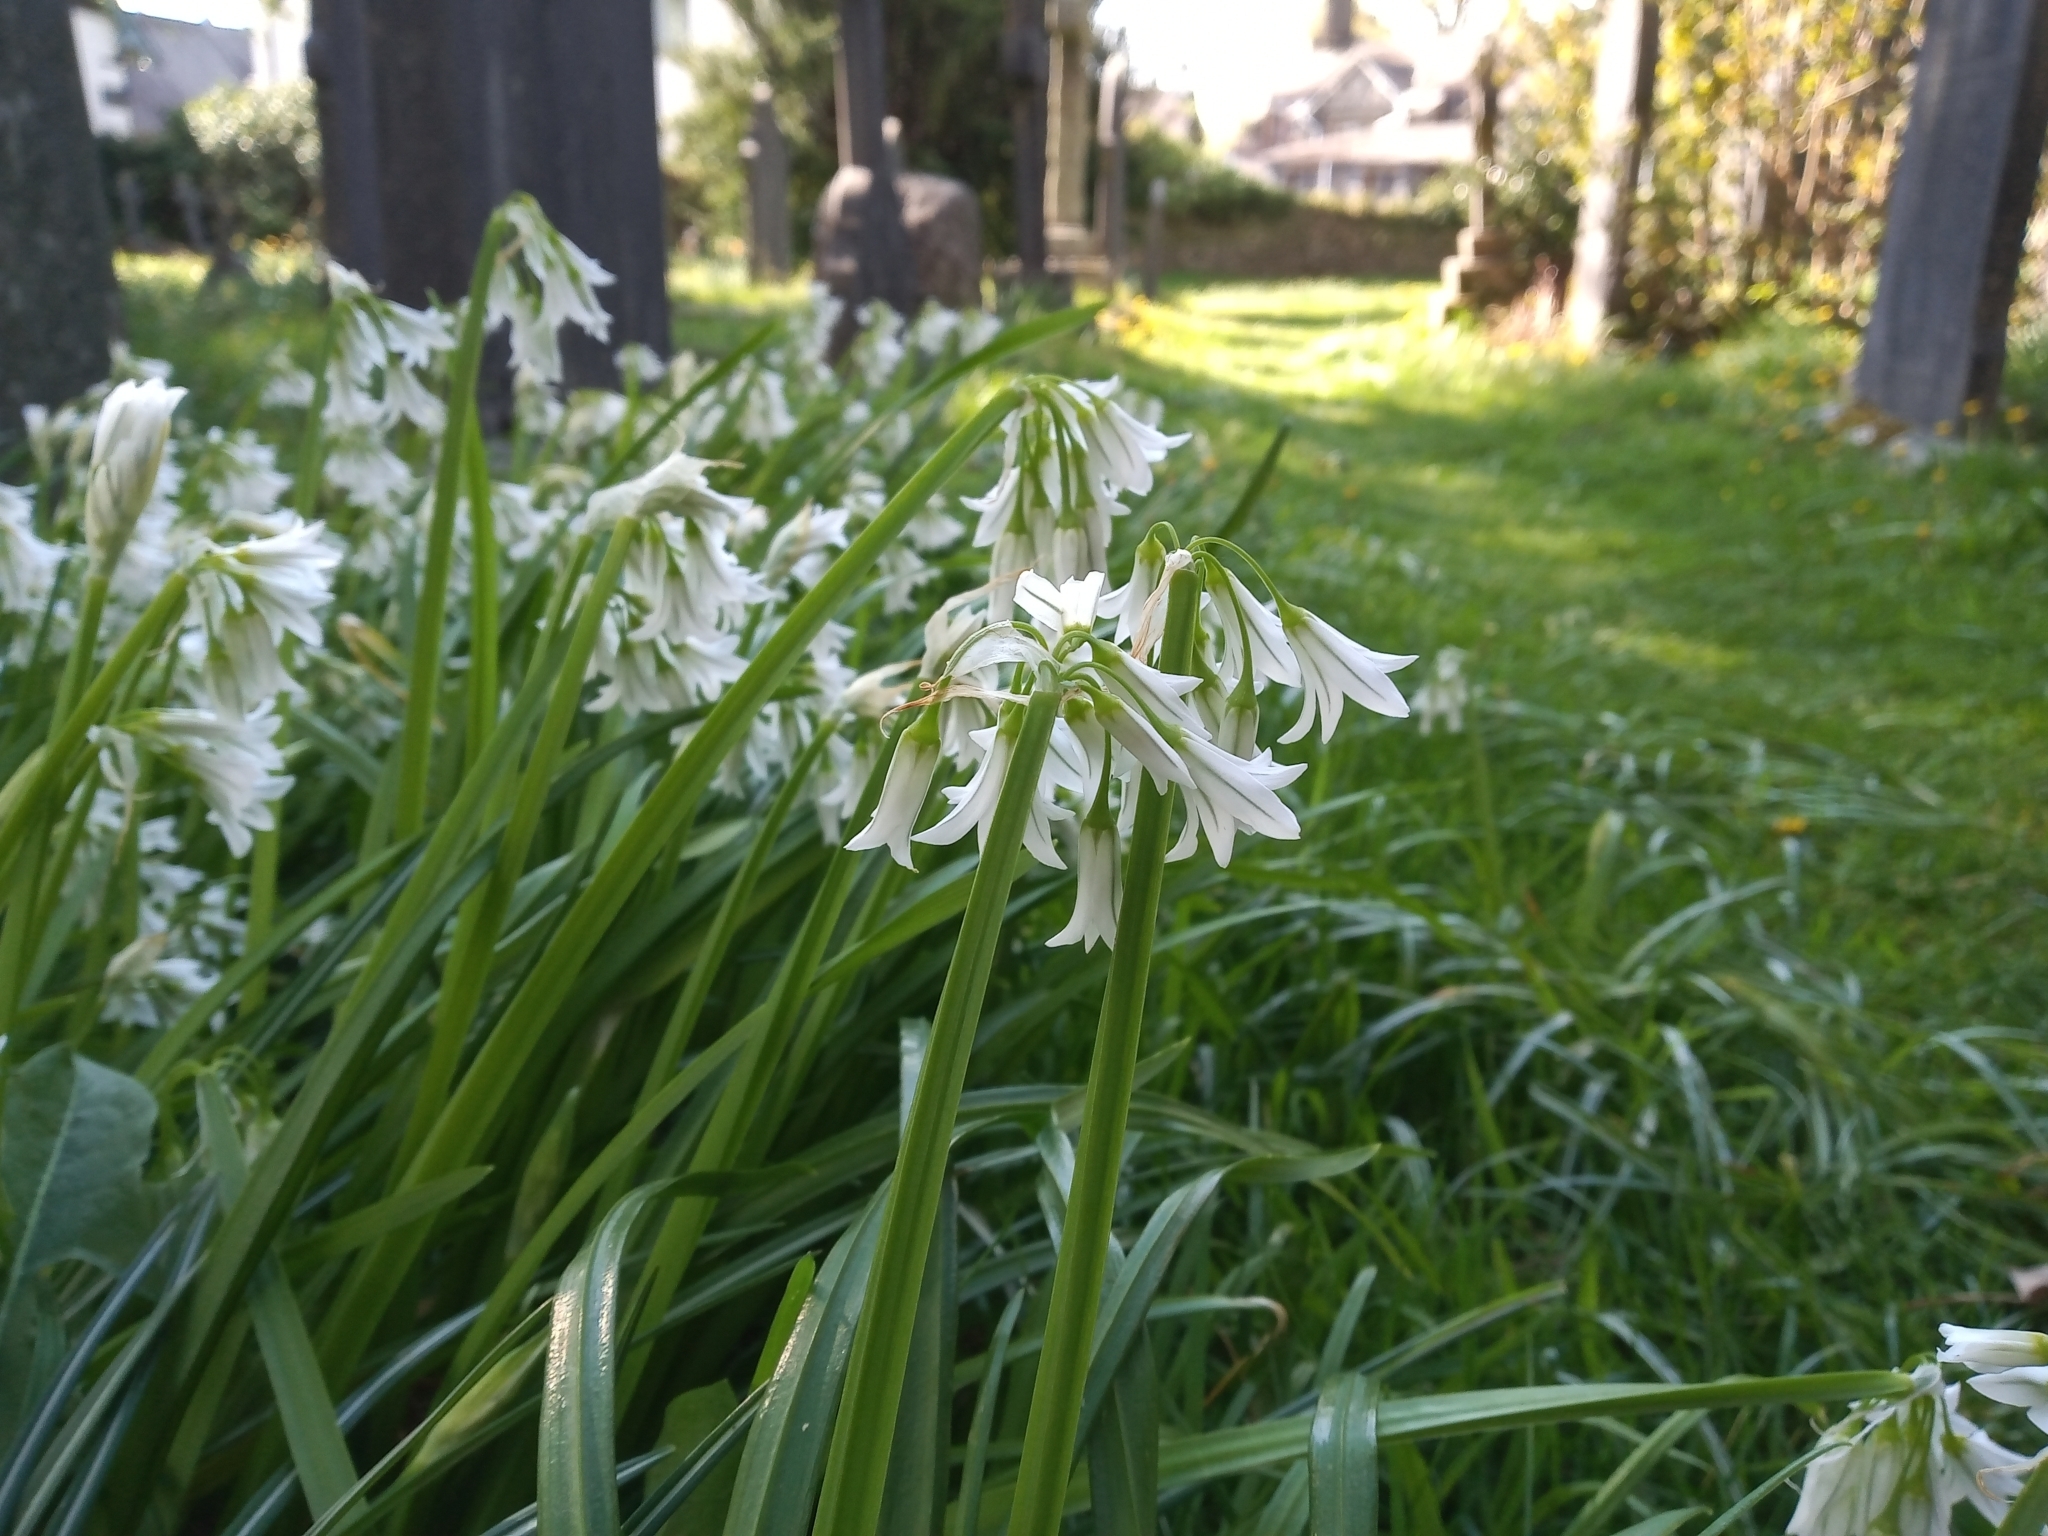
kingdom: Plantae
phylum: Tracheophyta
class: Liliopsida
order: Asparagales
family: Amaryllidaceae
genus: Allium
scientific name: Allium triquetrum
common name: Three-cornered garlic
